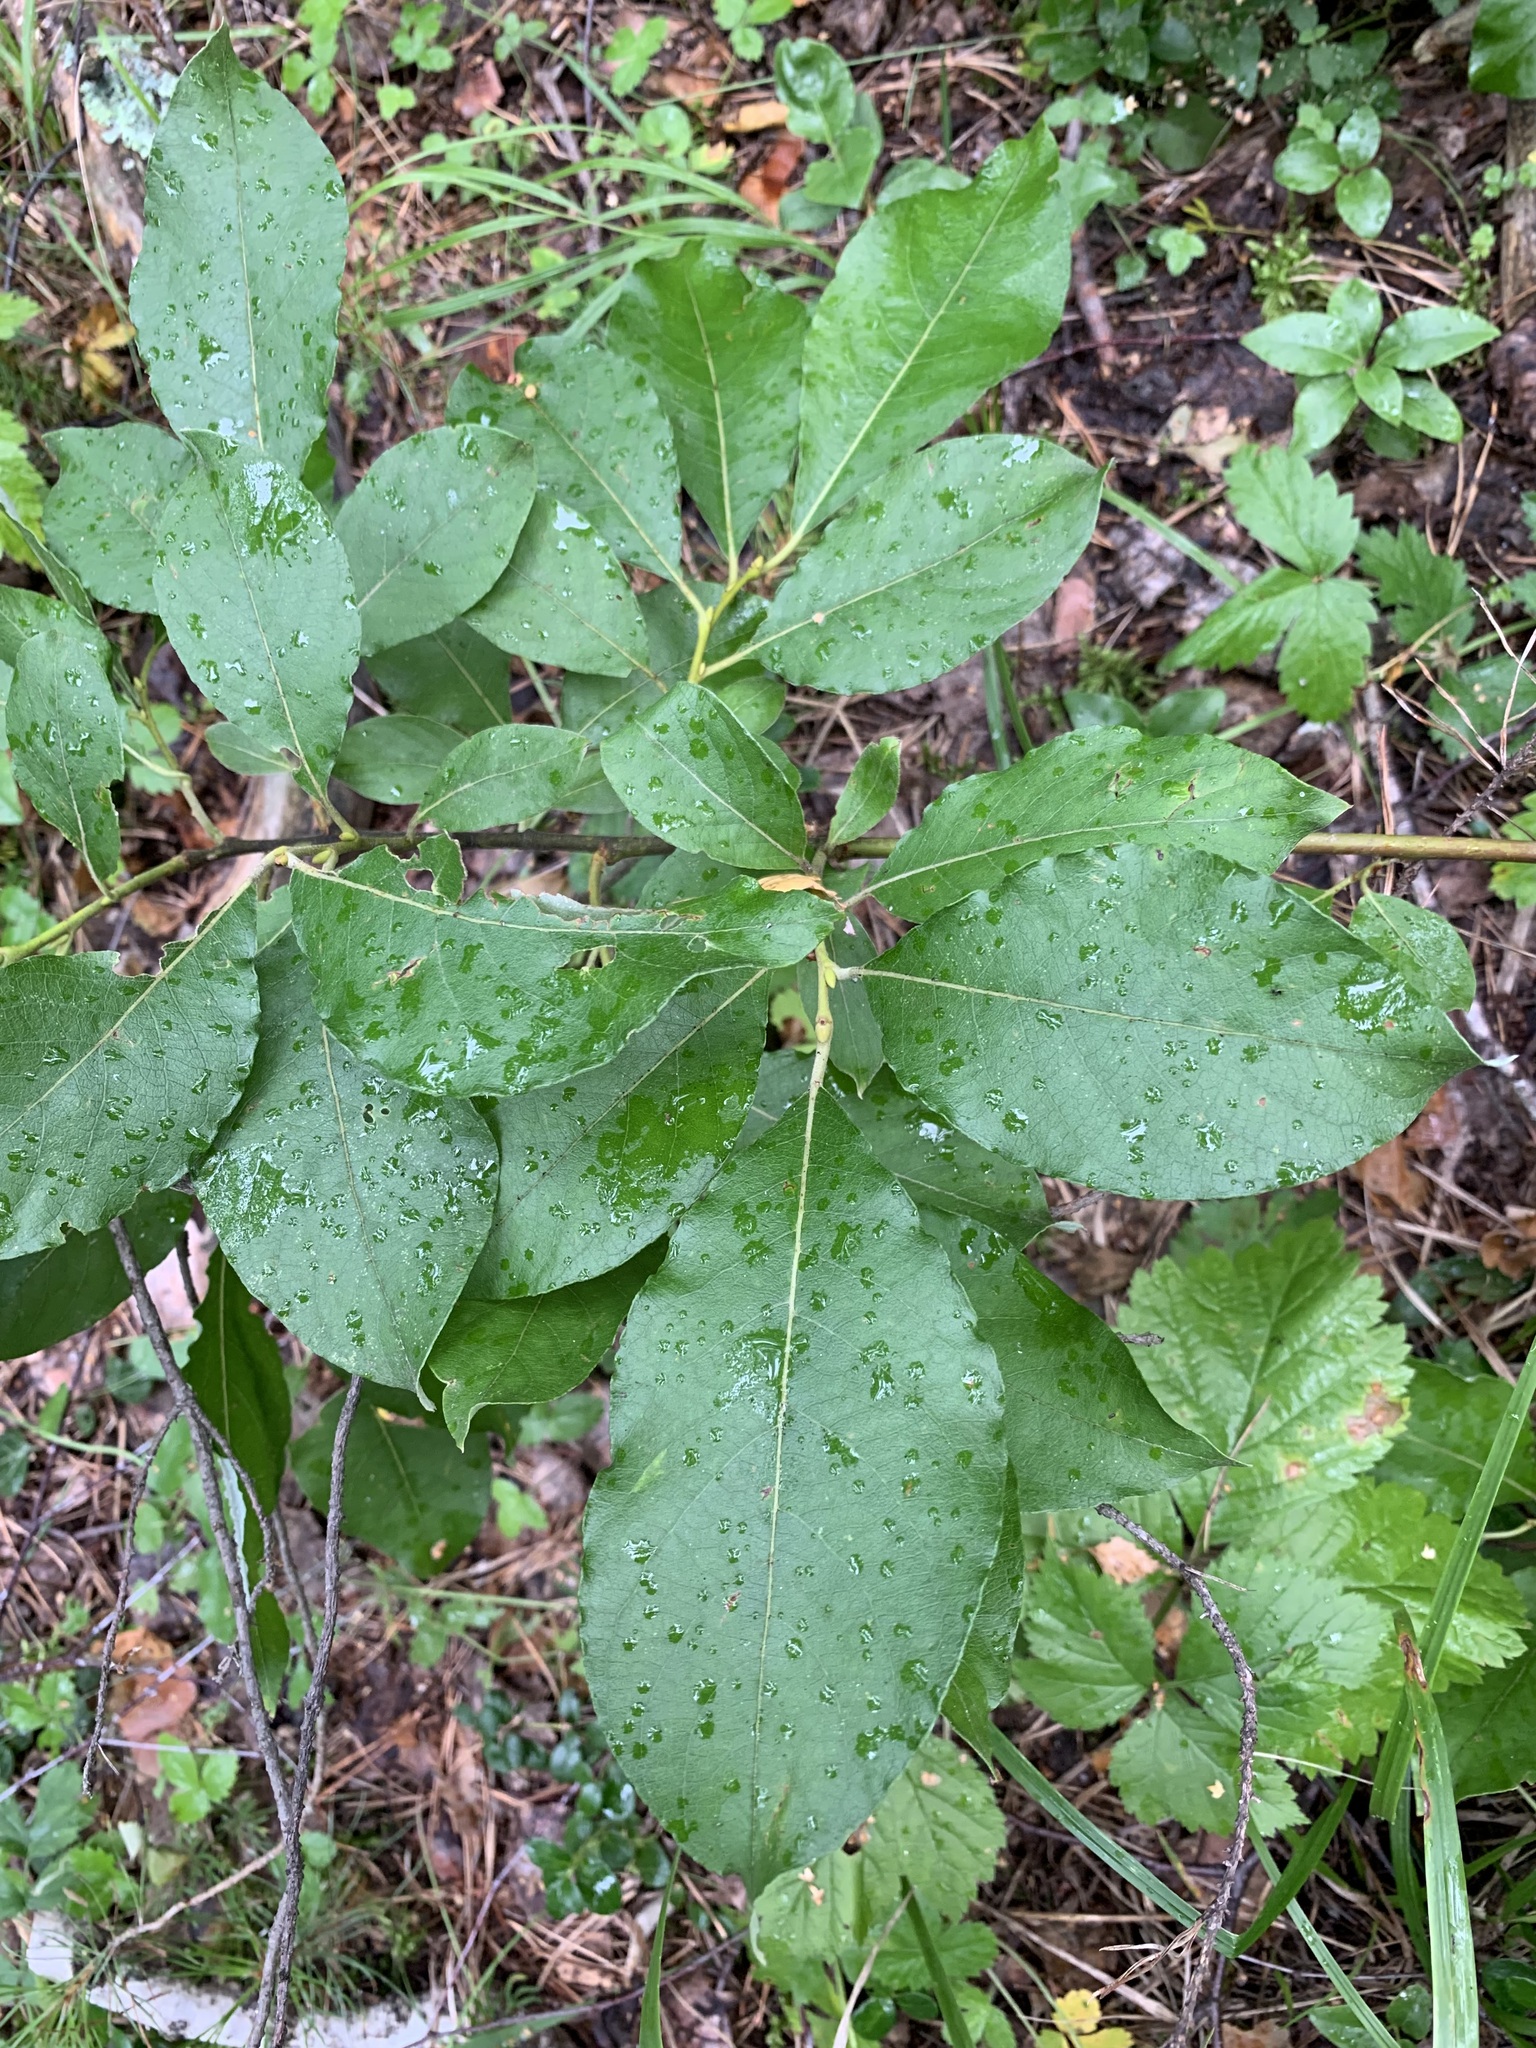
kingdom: Plantae
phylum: Tracheophyta
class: Magnoliopsida
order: Malpighiales
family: Salicaceae
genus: Salix
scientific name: Salix caprea
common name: Goat willow
